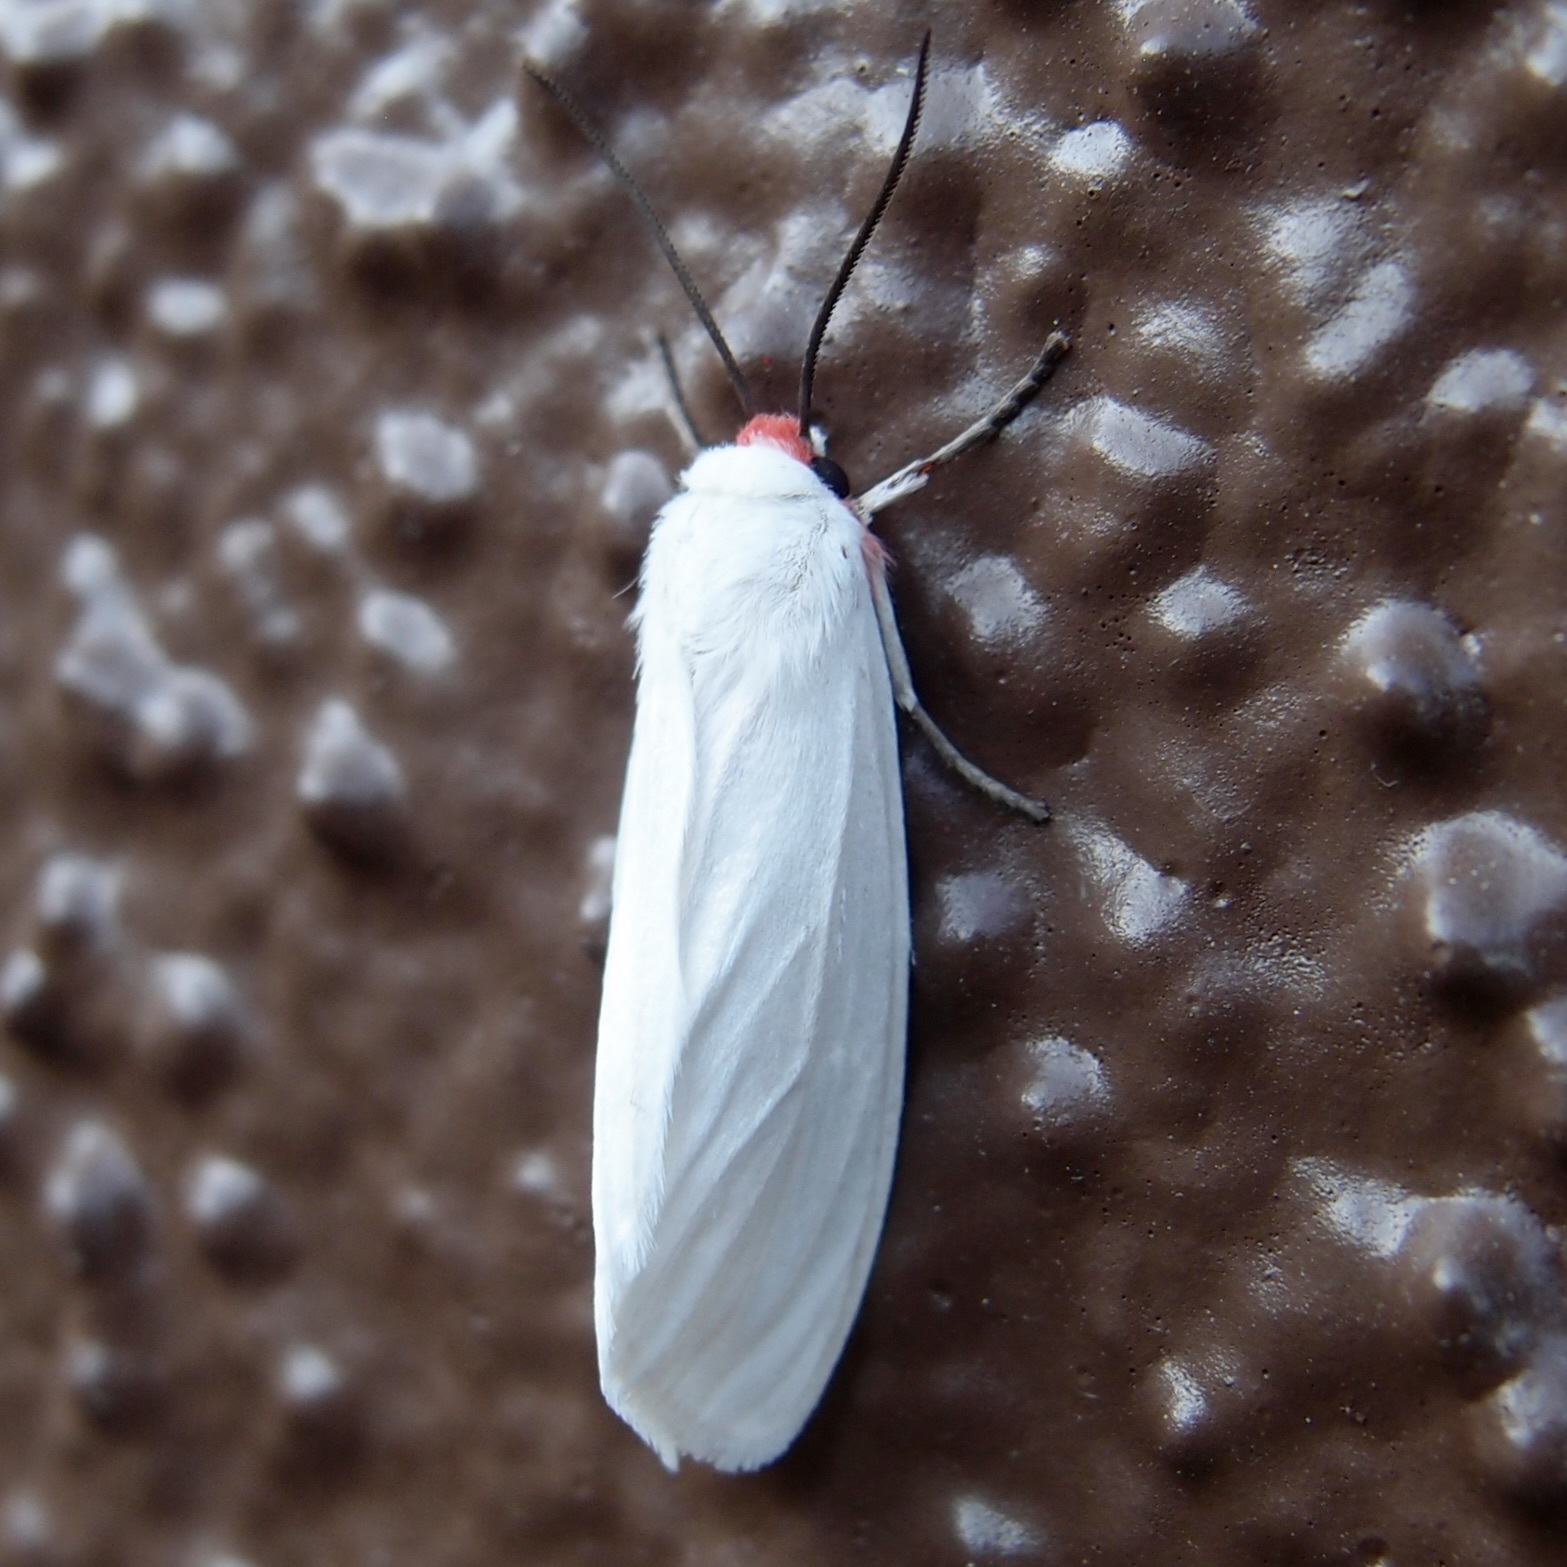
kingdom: Animalia
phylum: Arthropoda
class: Insecta
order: Lepidoptera
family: Erebidae
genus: Pygarctia
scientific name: Pygarctia roseicapitis
